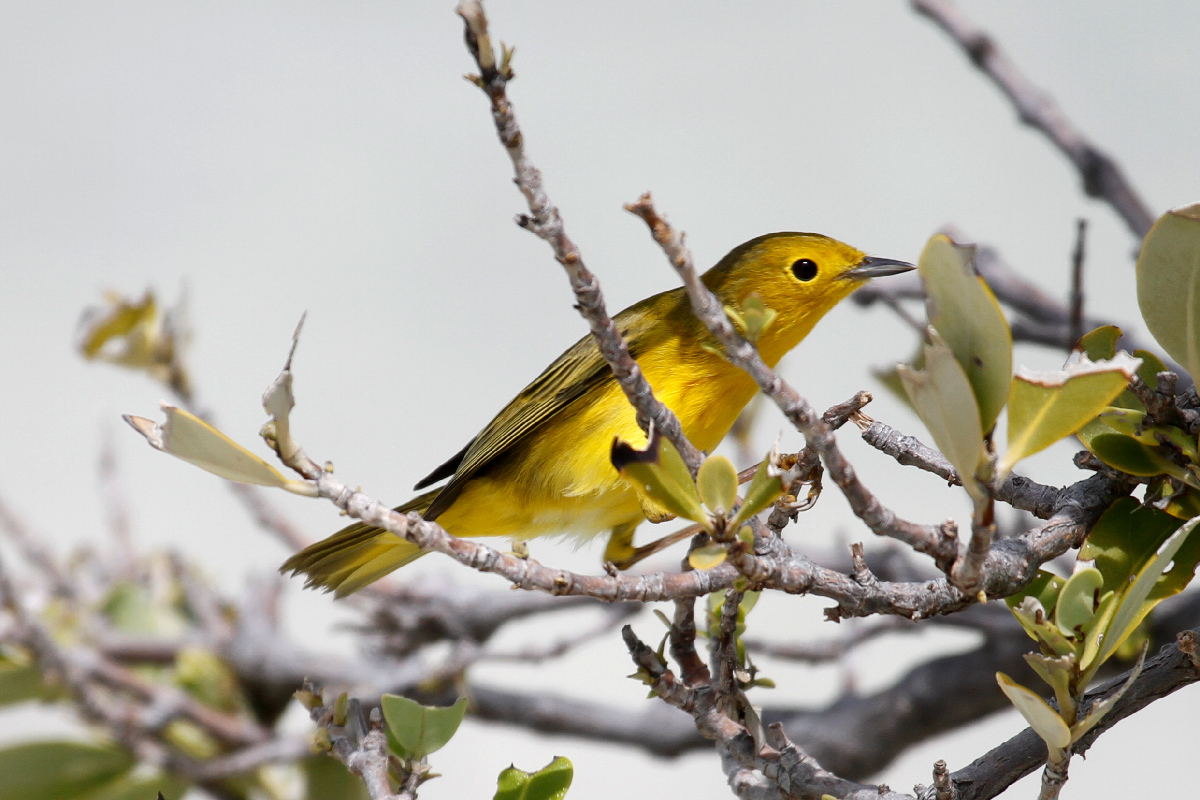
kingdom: Animalia
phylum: Chordata
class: Aves
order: Passeriformes
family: Parulidae
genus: Setophaga
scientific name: Setophaga petechia
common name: Yellow warbler
